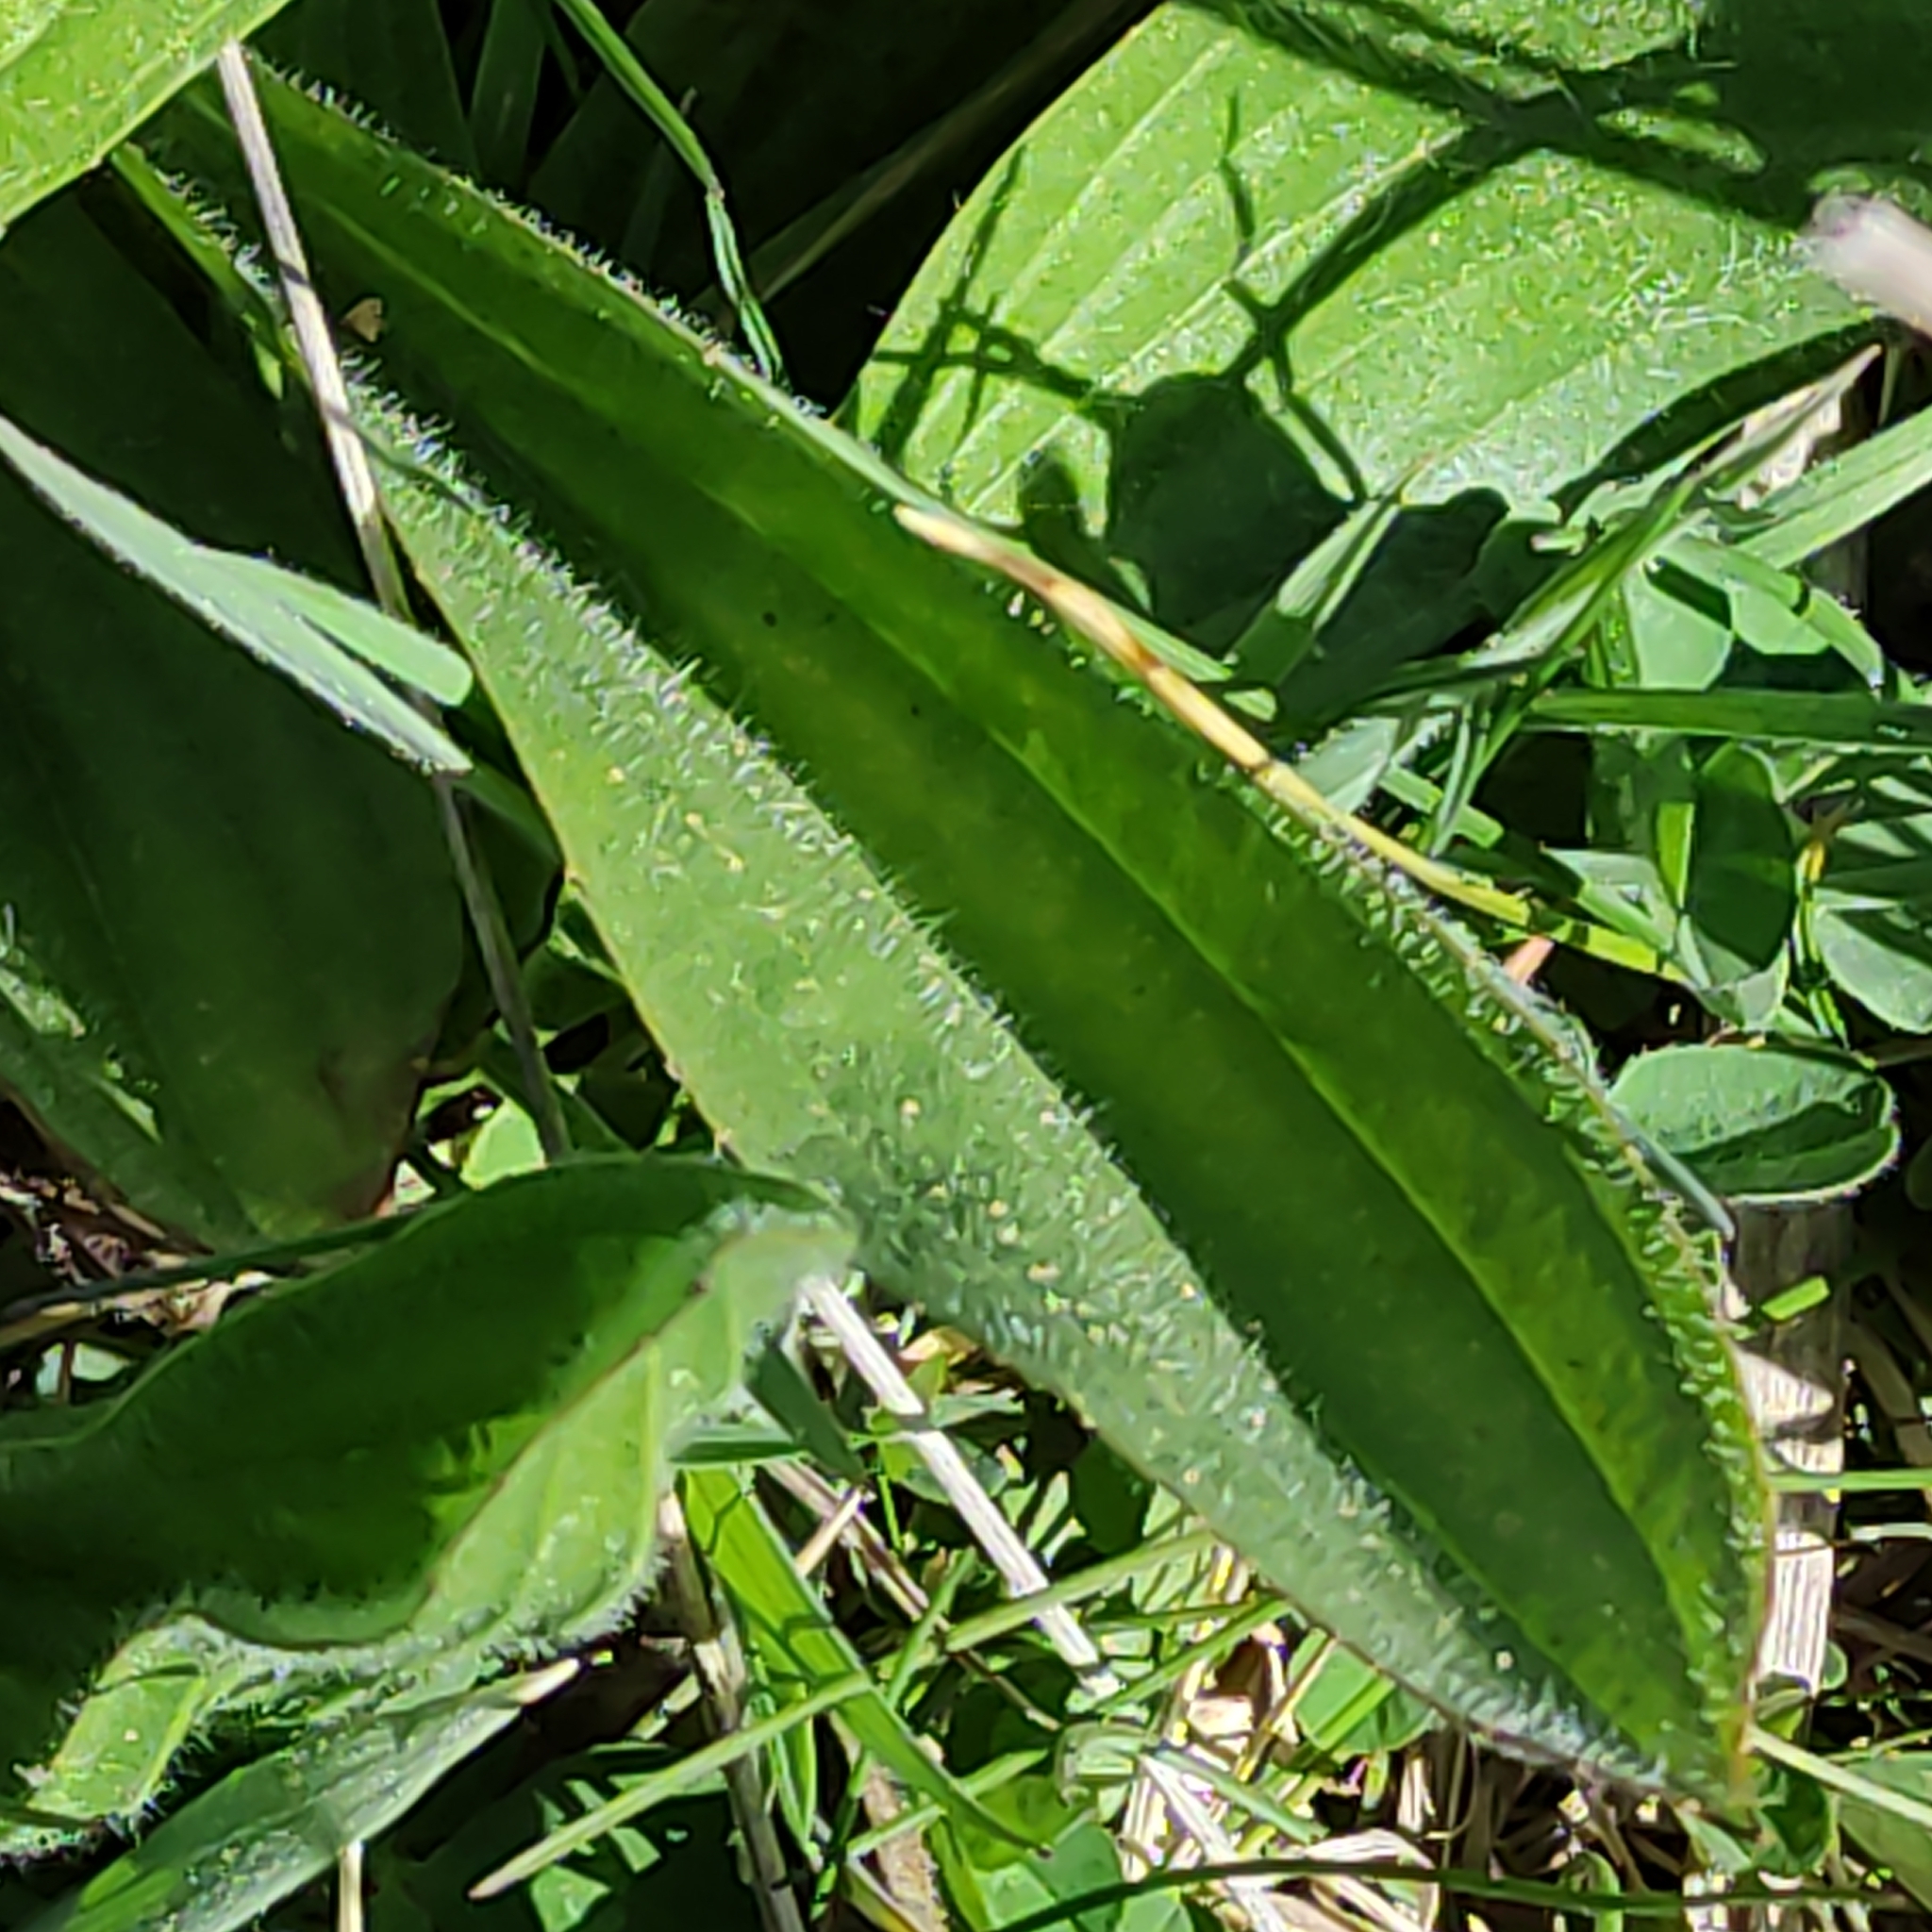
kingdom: Plantae
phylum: Tracheophyta
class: Magnoliopsida
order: Lamiales
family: Plantaginaceae
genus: Plantago
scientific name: Plantago lanceolata
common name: Ribwort plantain
